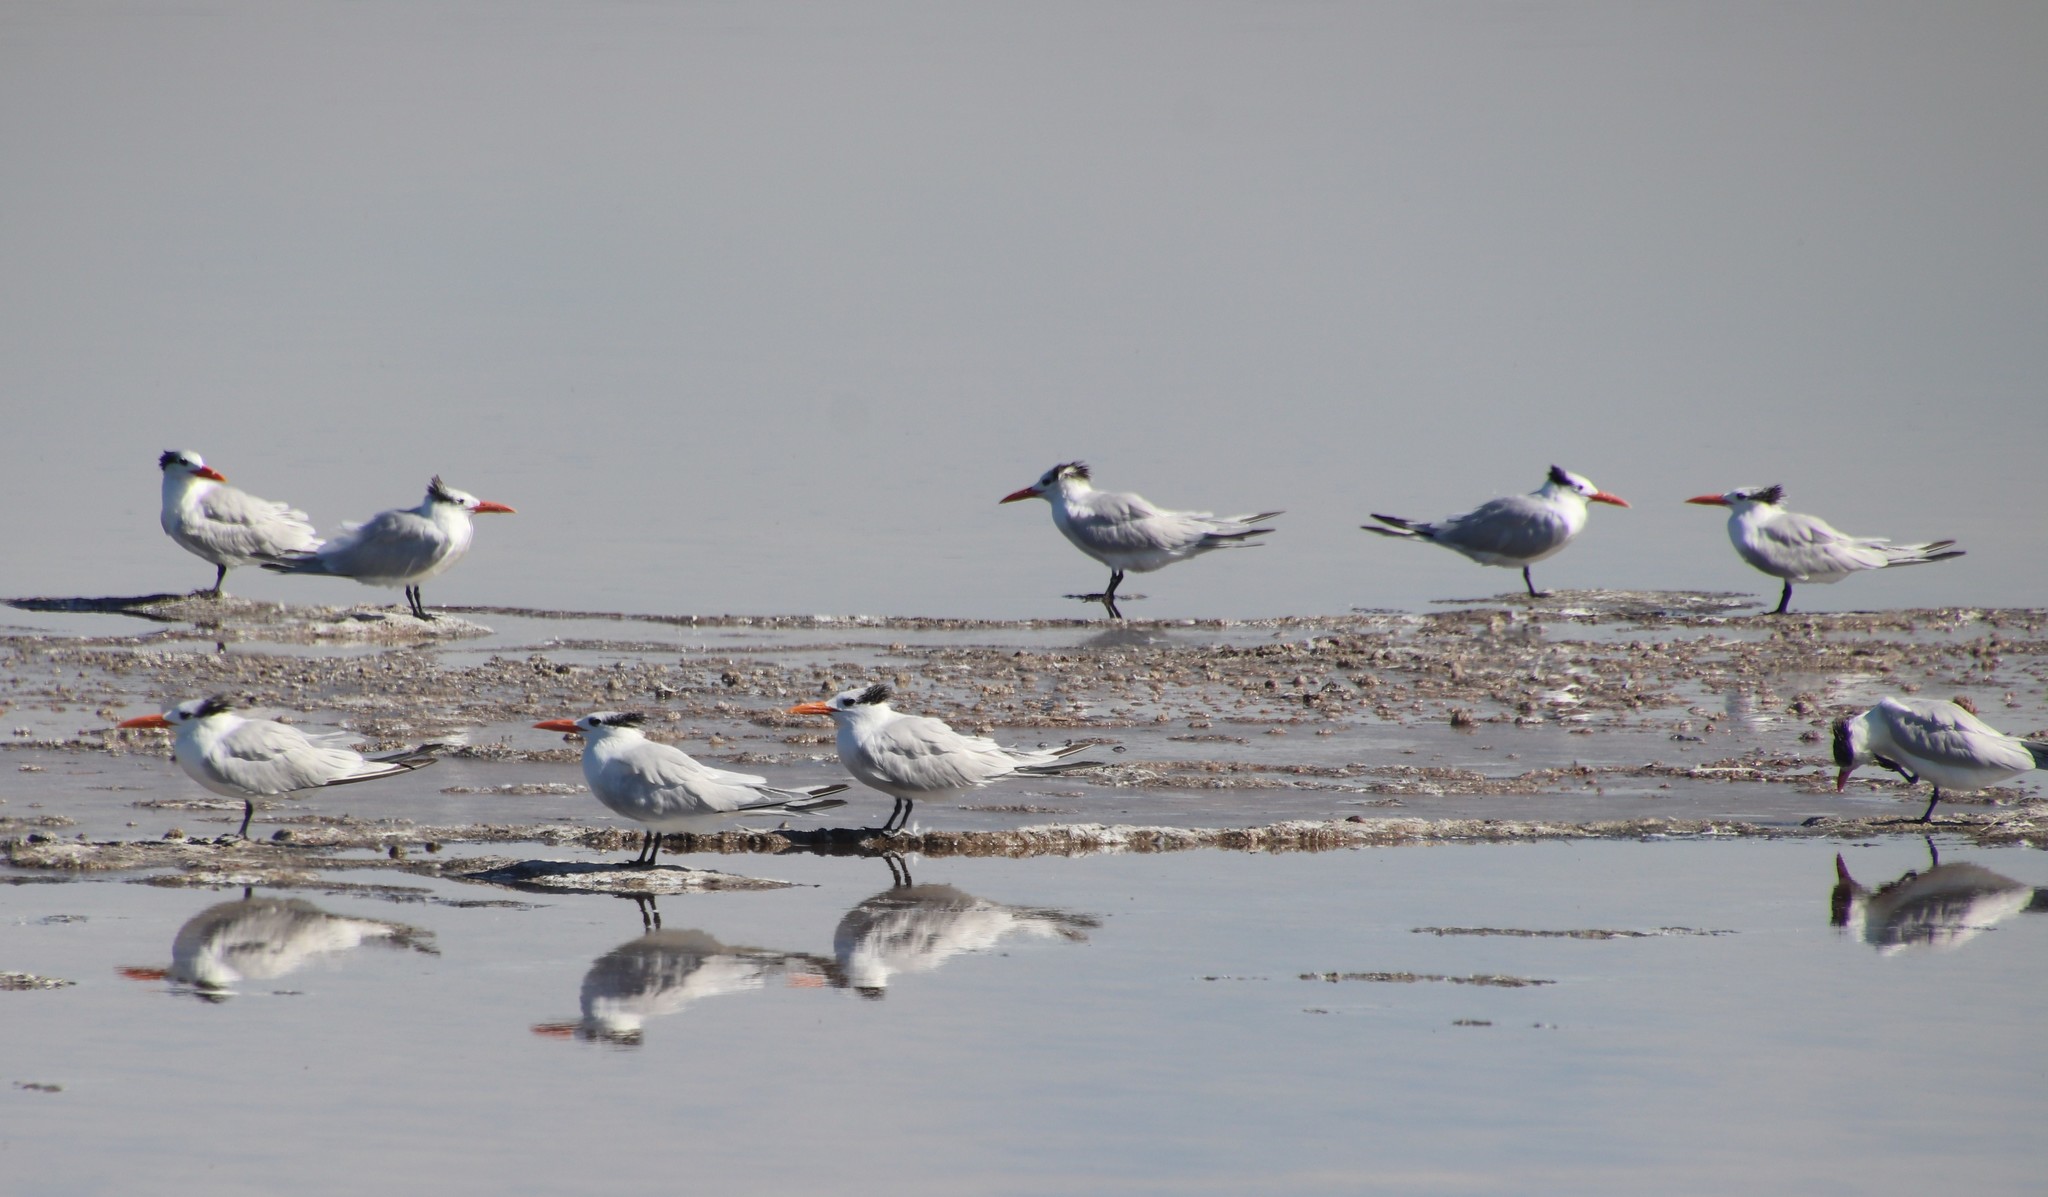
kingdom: Animalia
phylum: Chordata
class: Aves
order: Charadriiformes
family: Laridae
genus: Thalasseus
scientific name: Thalasseus maximus
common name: Royal tern
